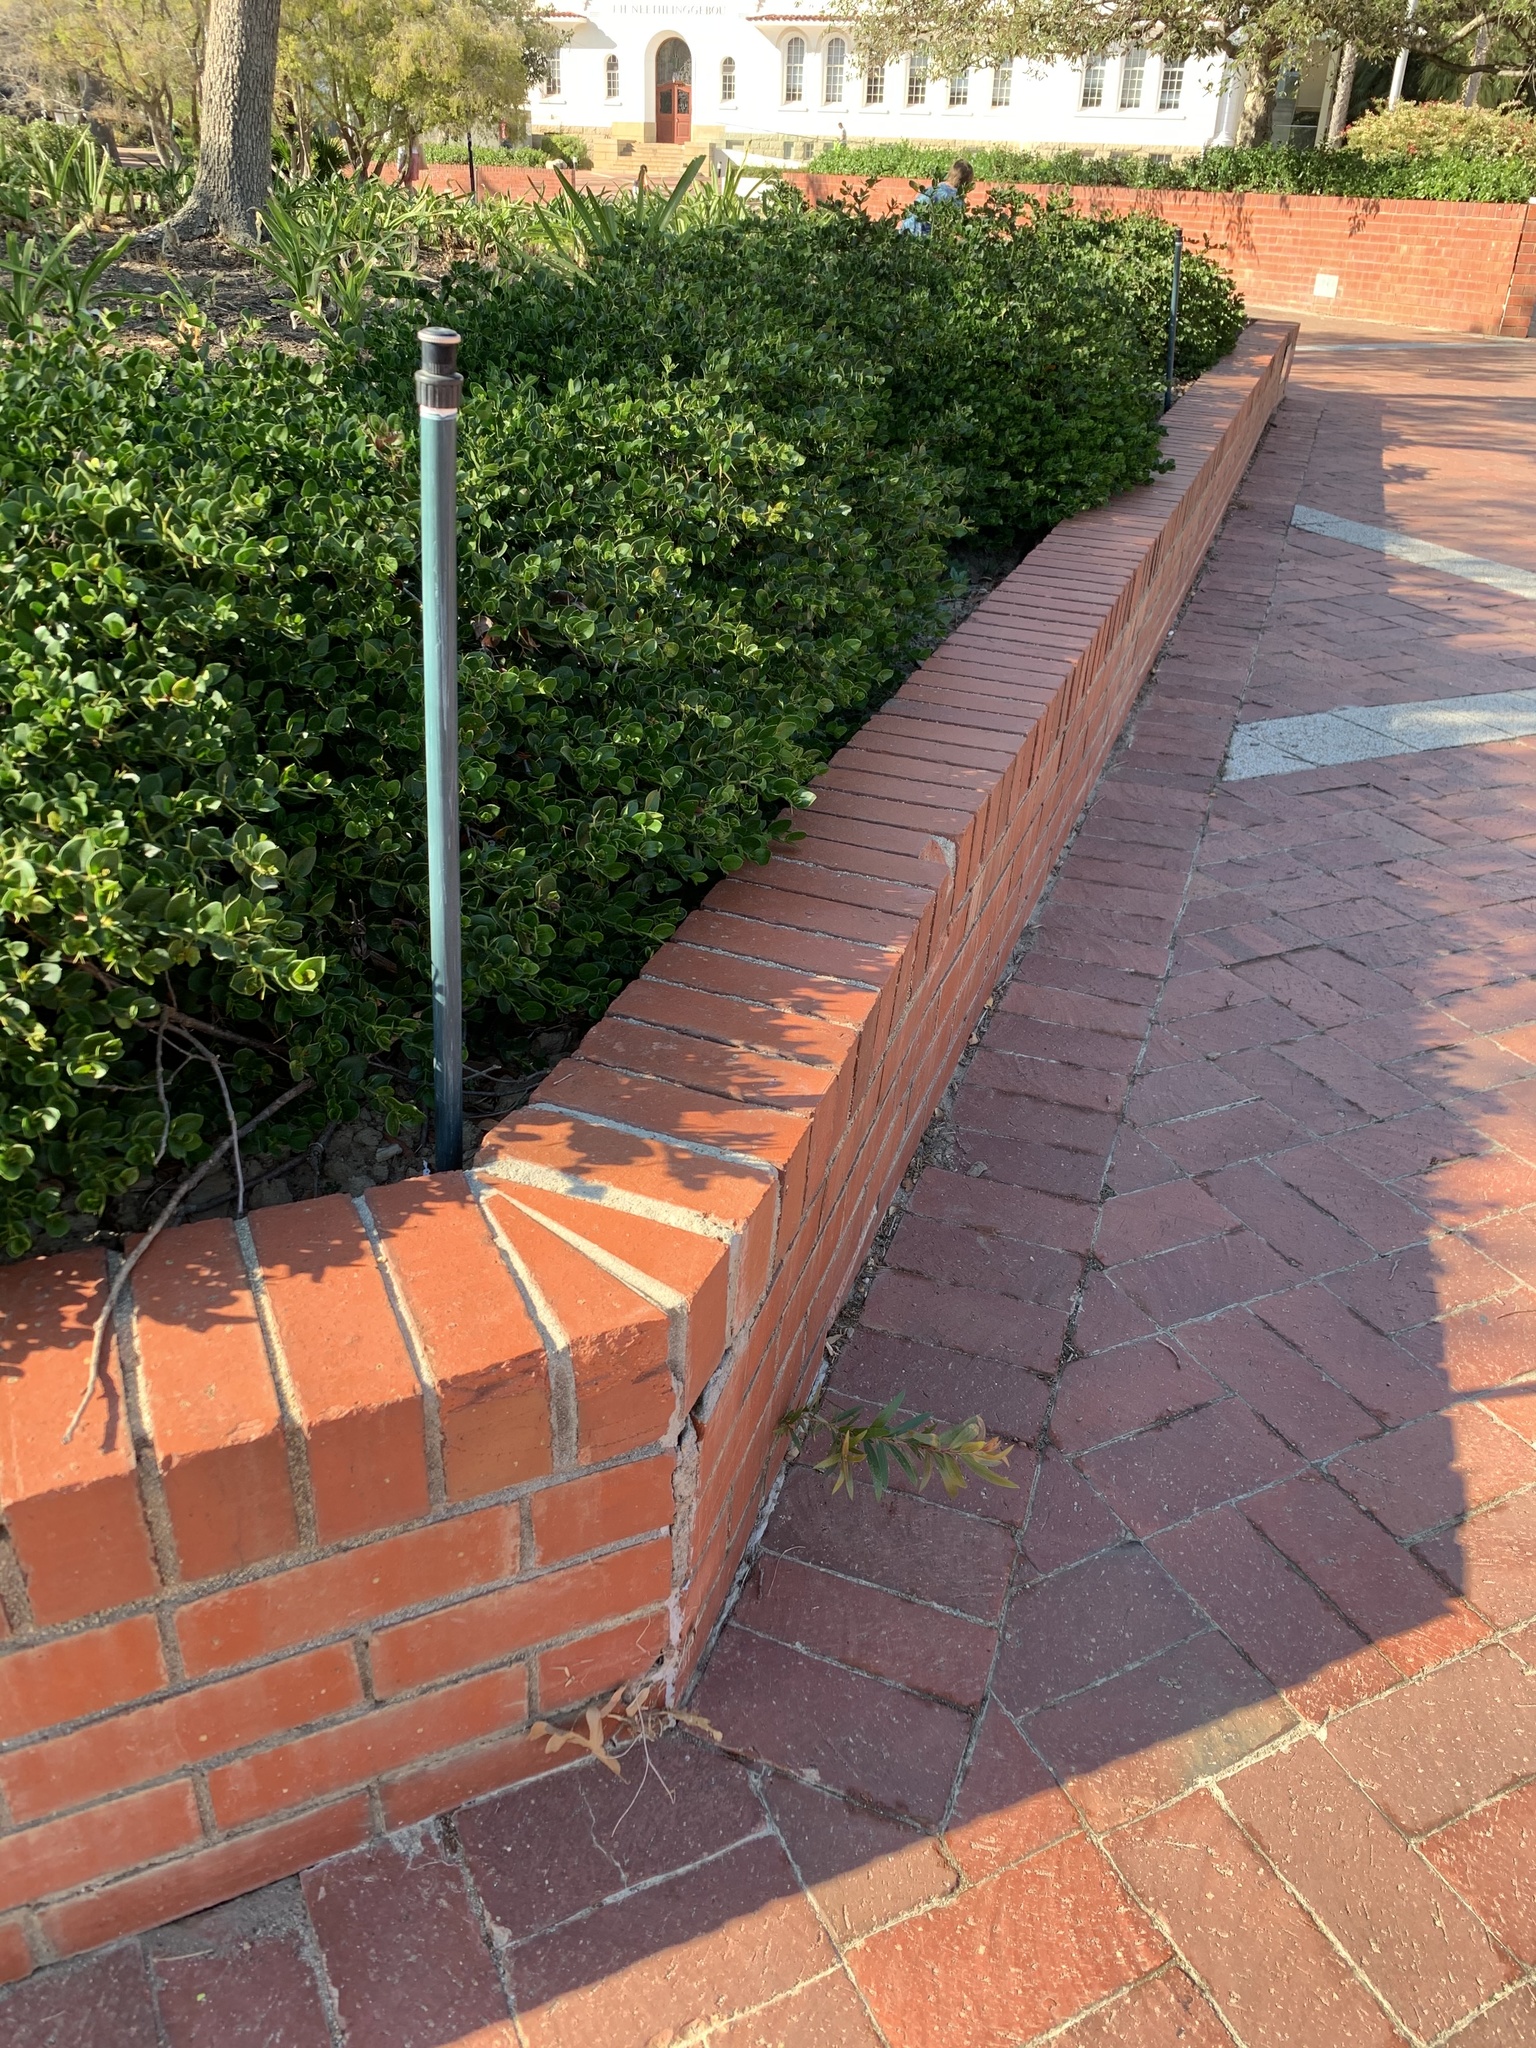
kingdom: Plantae
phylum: Tracheophyta
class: Magnoliopsida
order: Myrtales
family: Myrtaceae
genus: Callistemon
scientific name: Callistemon viminalis
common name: Drooping bottlebrush
